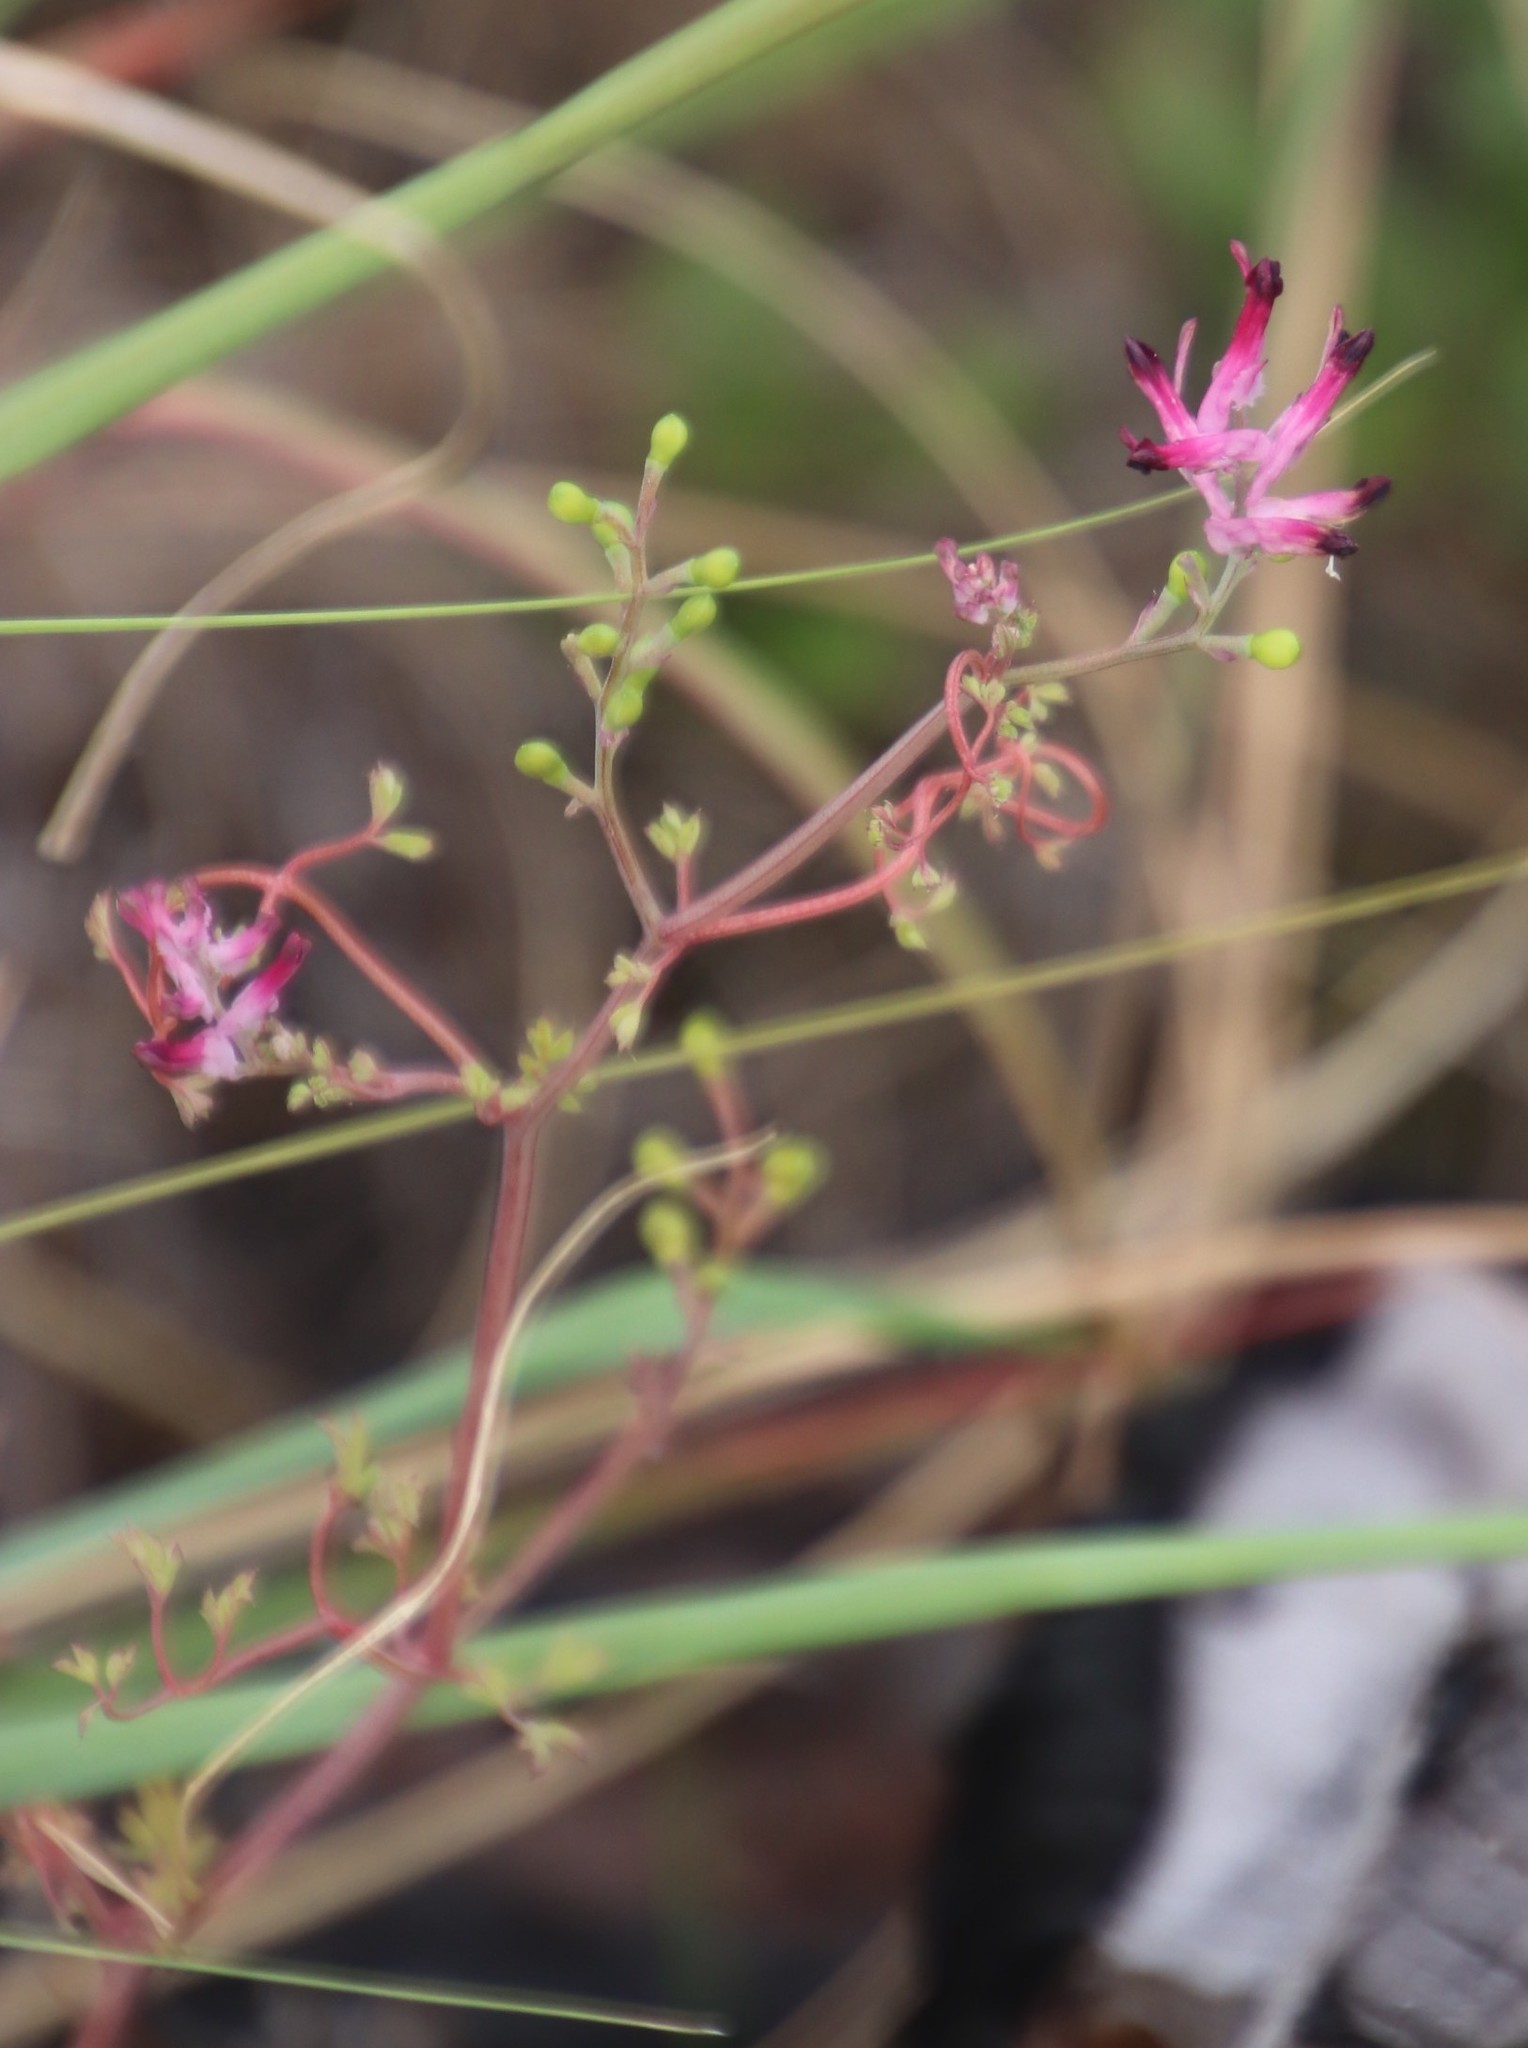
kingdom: Plantae
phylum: Tracheophyta
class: Magnoliopsida
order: Ranunculales
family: Papaveraceae
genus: Fumaria
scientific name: Fumaria muralis
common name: Common ramping-fumitory
